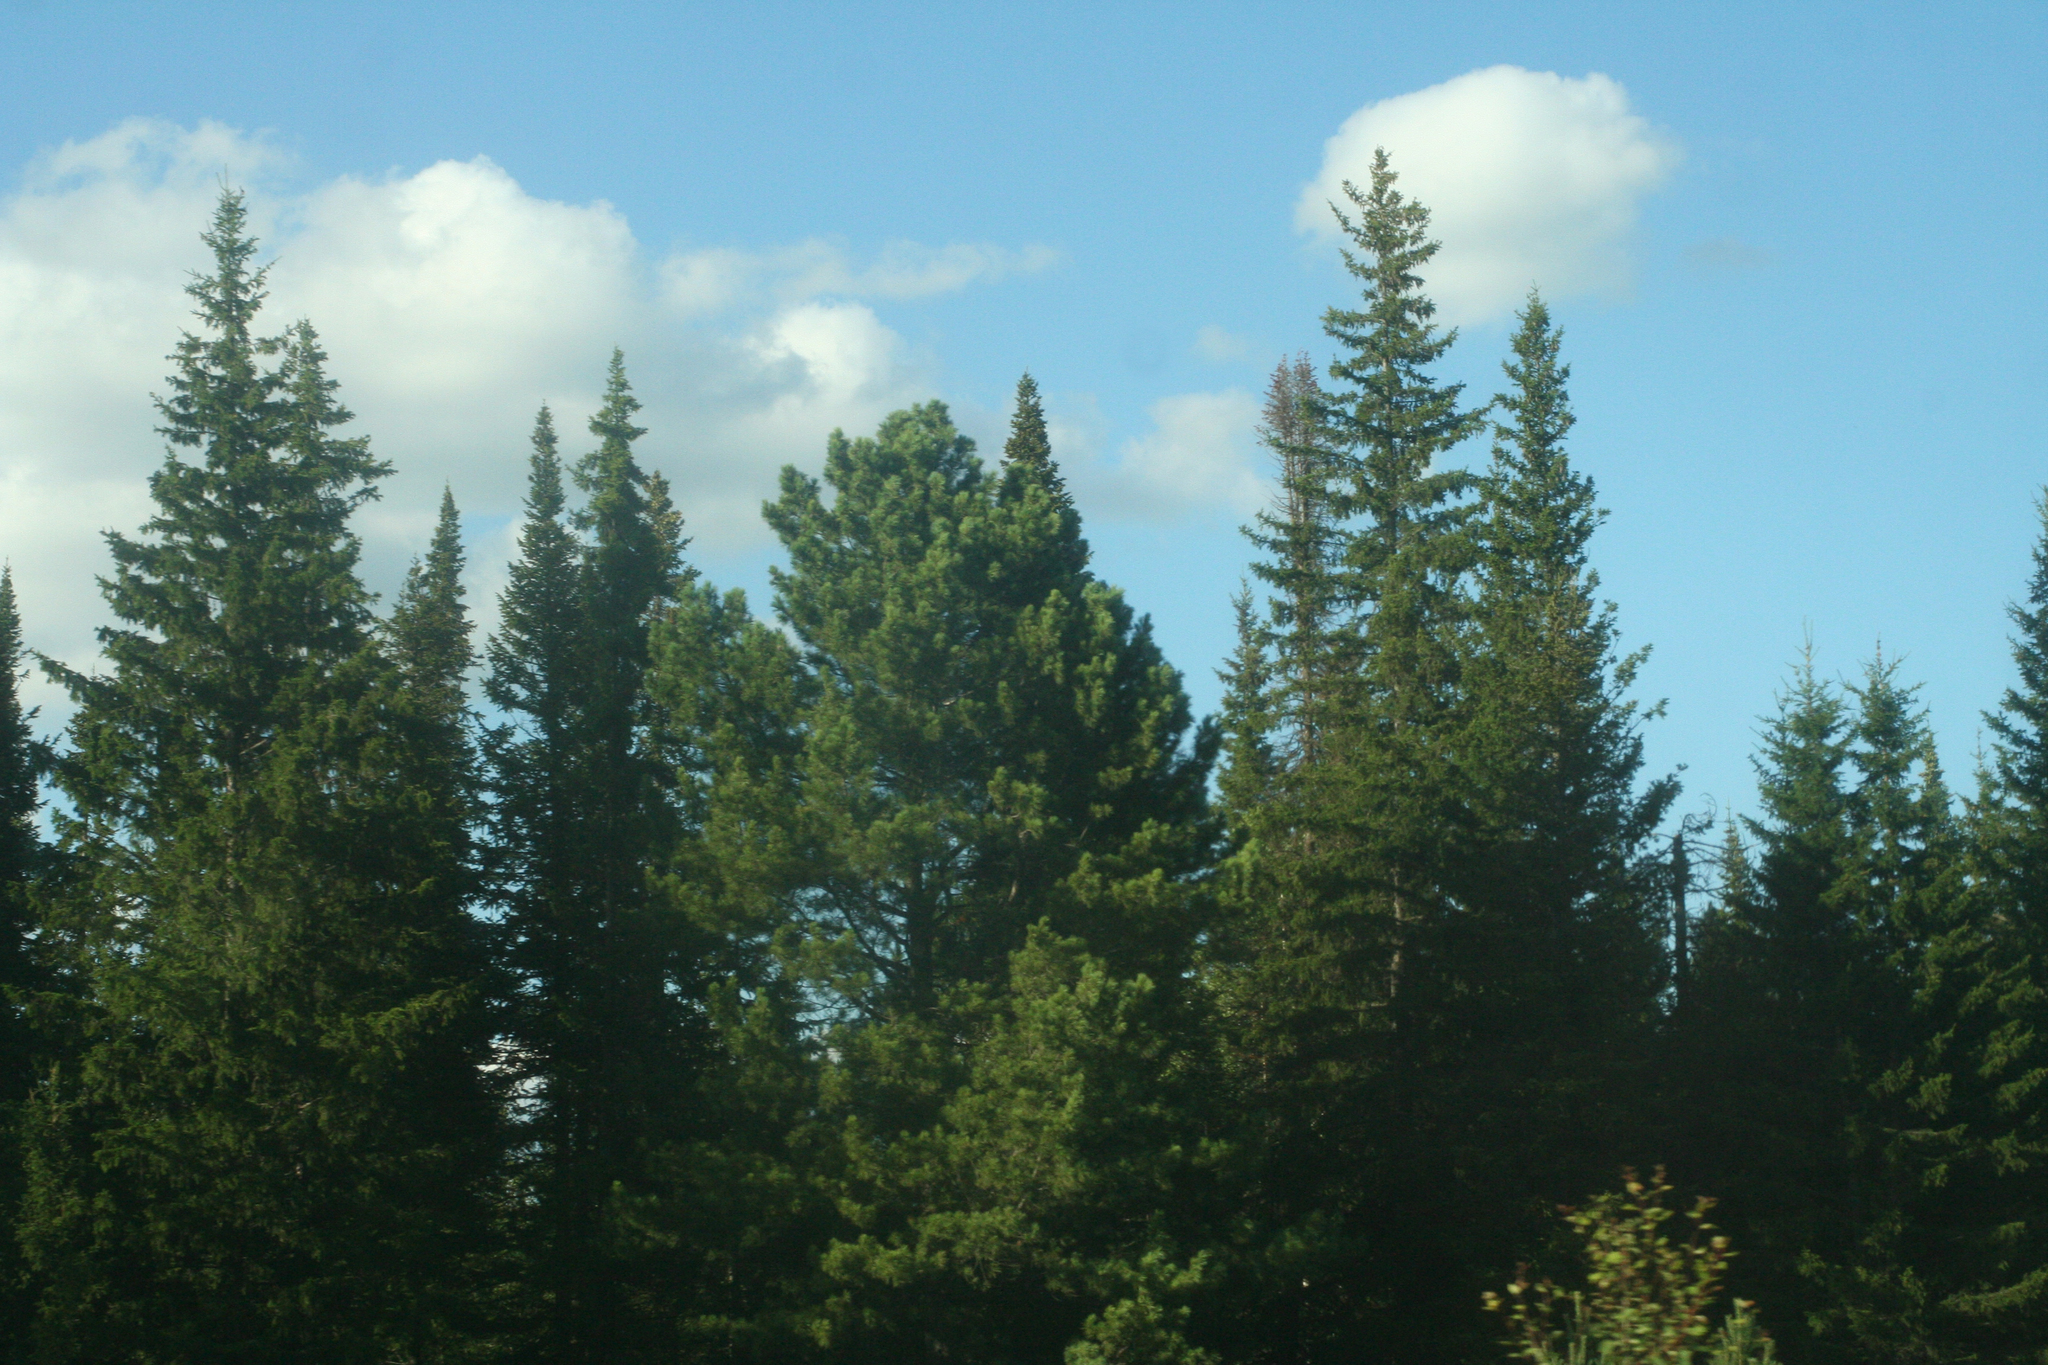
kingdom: Plantae
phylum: Tracheophyta
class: Pinopsida
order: Pinales
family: Pinaceae
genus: Pinus
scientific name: Pinus sibirica
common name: Siberian pine
